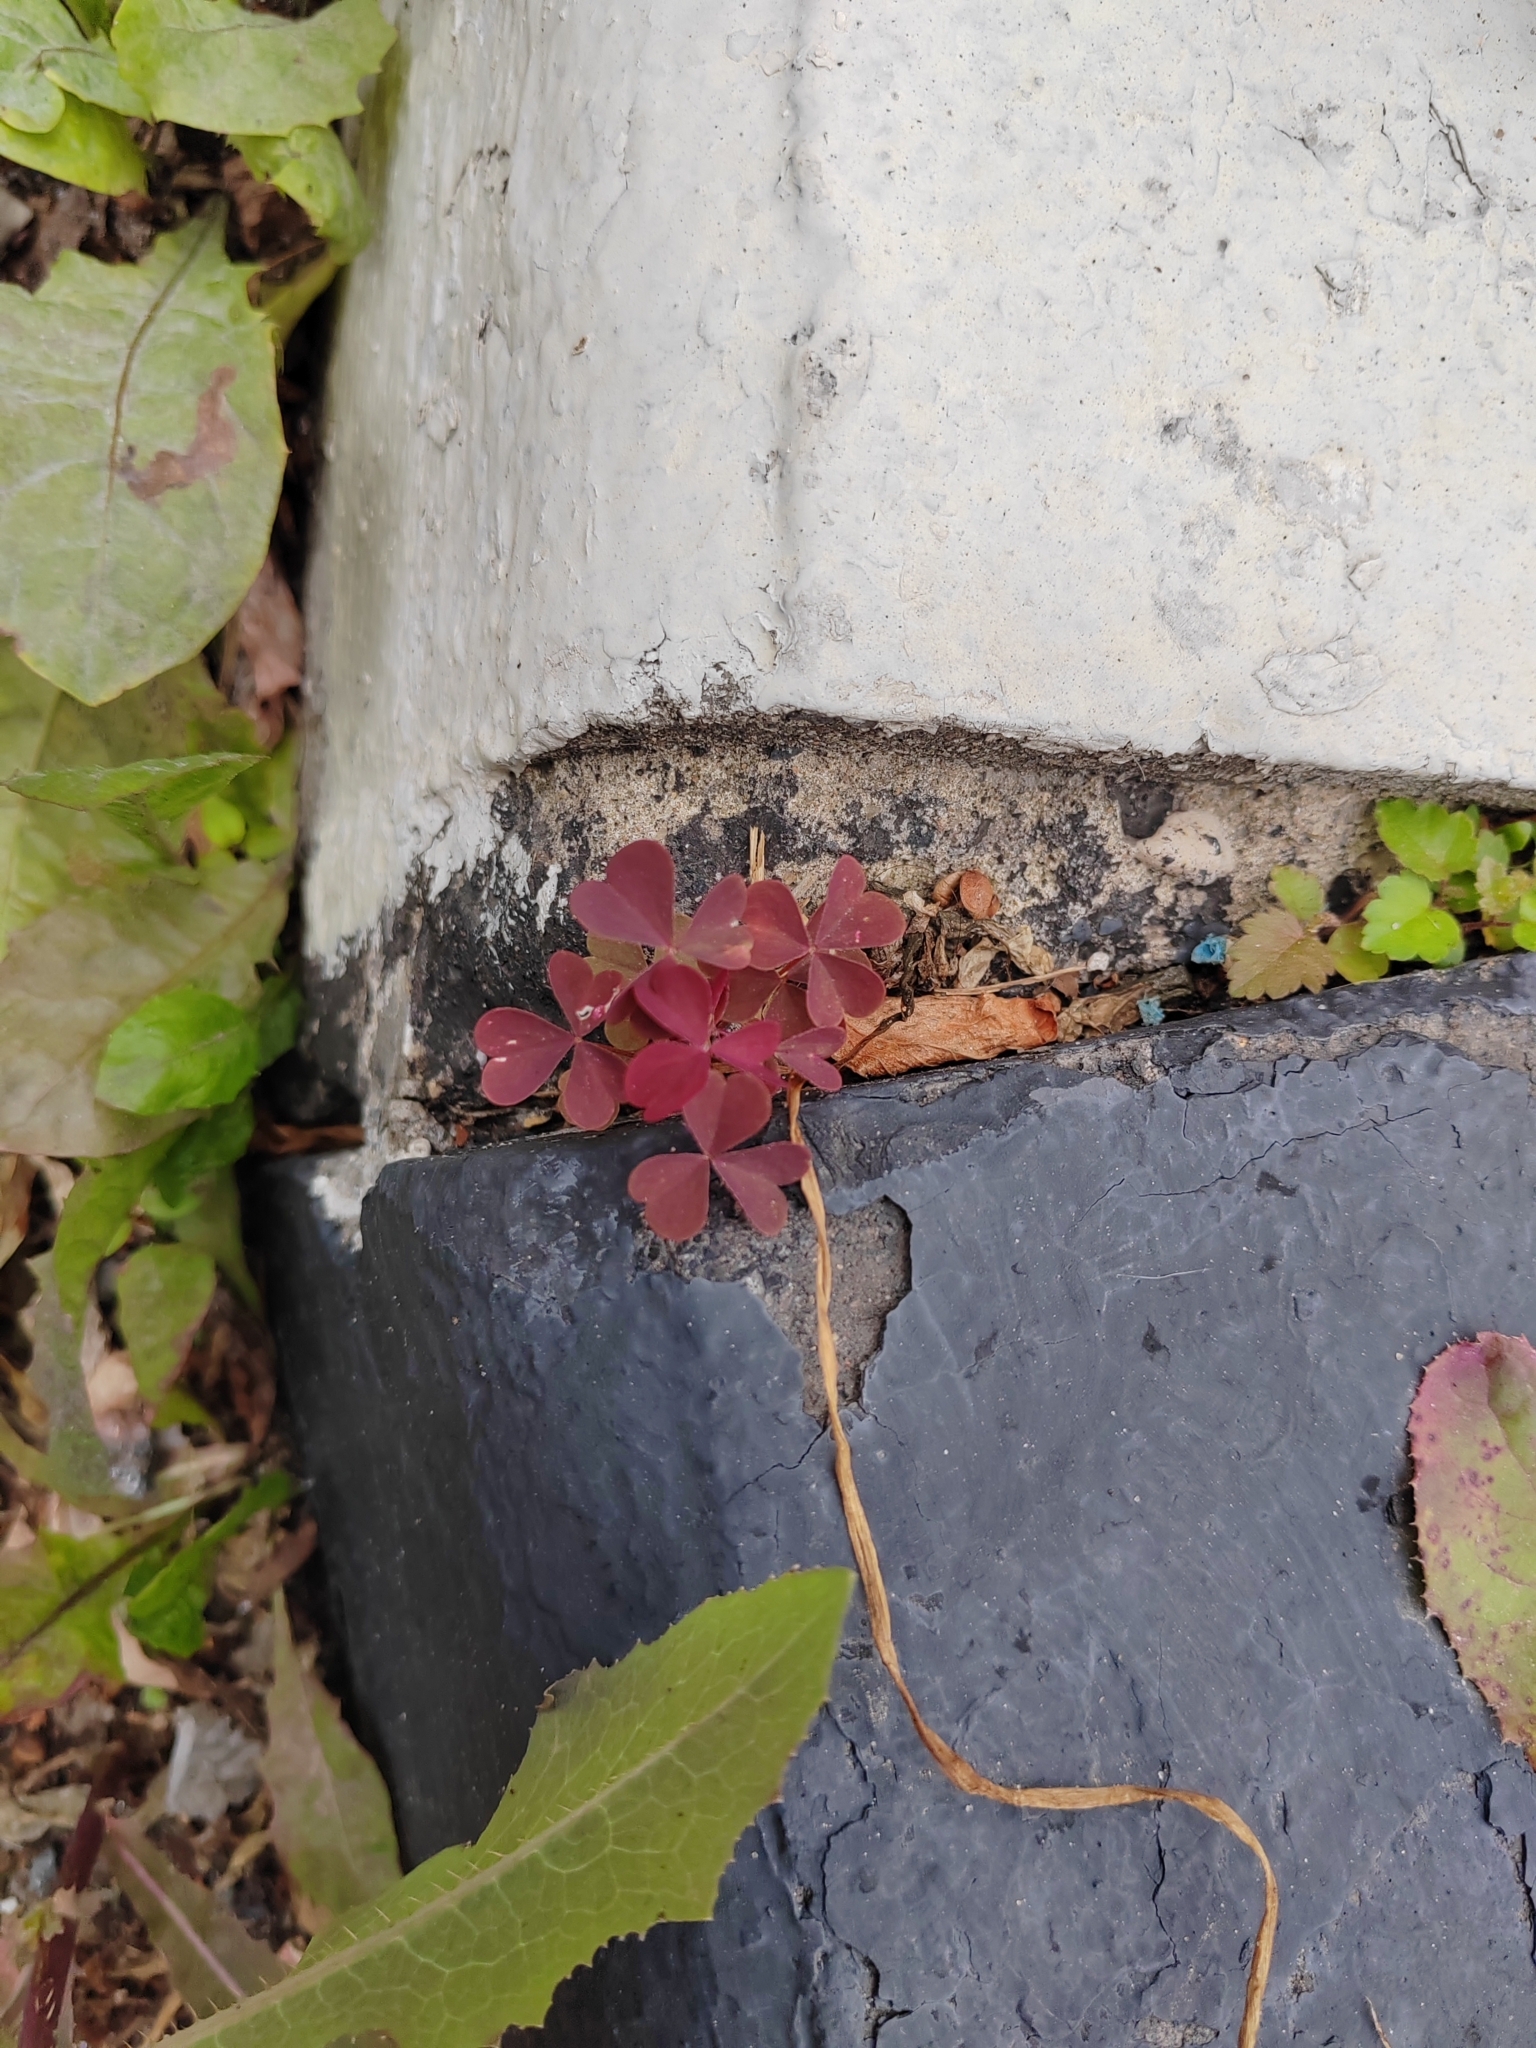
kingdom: Plantae
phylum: Tracheophyta
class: Magnoliopsida
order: Oxalidales
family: Oxalidaceae
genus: Oxalis
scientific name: Oxalis stricta
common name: Upright yellow-sorrel
